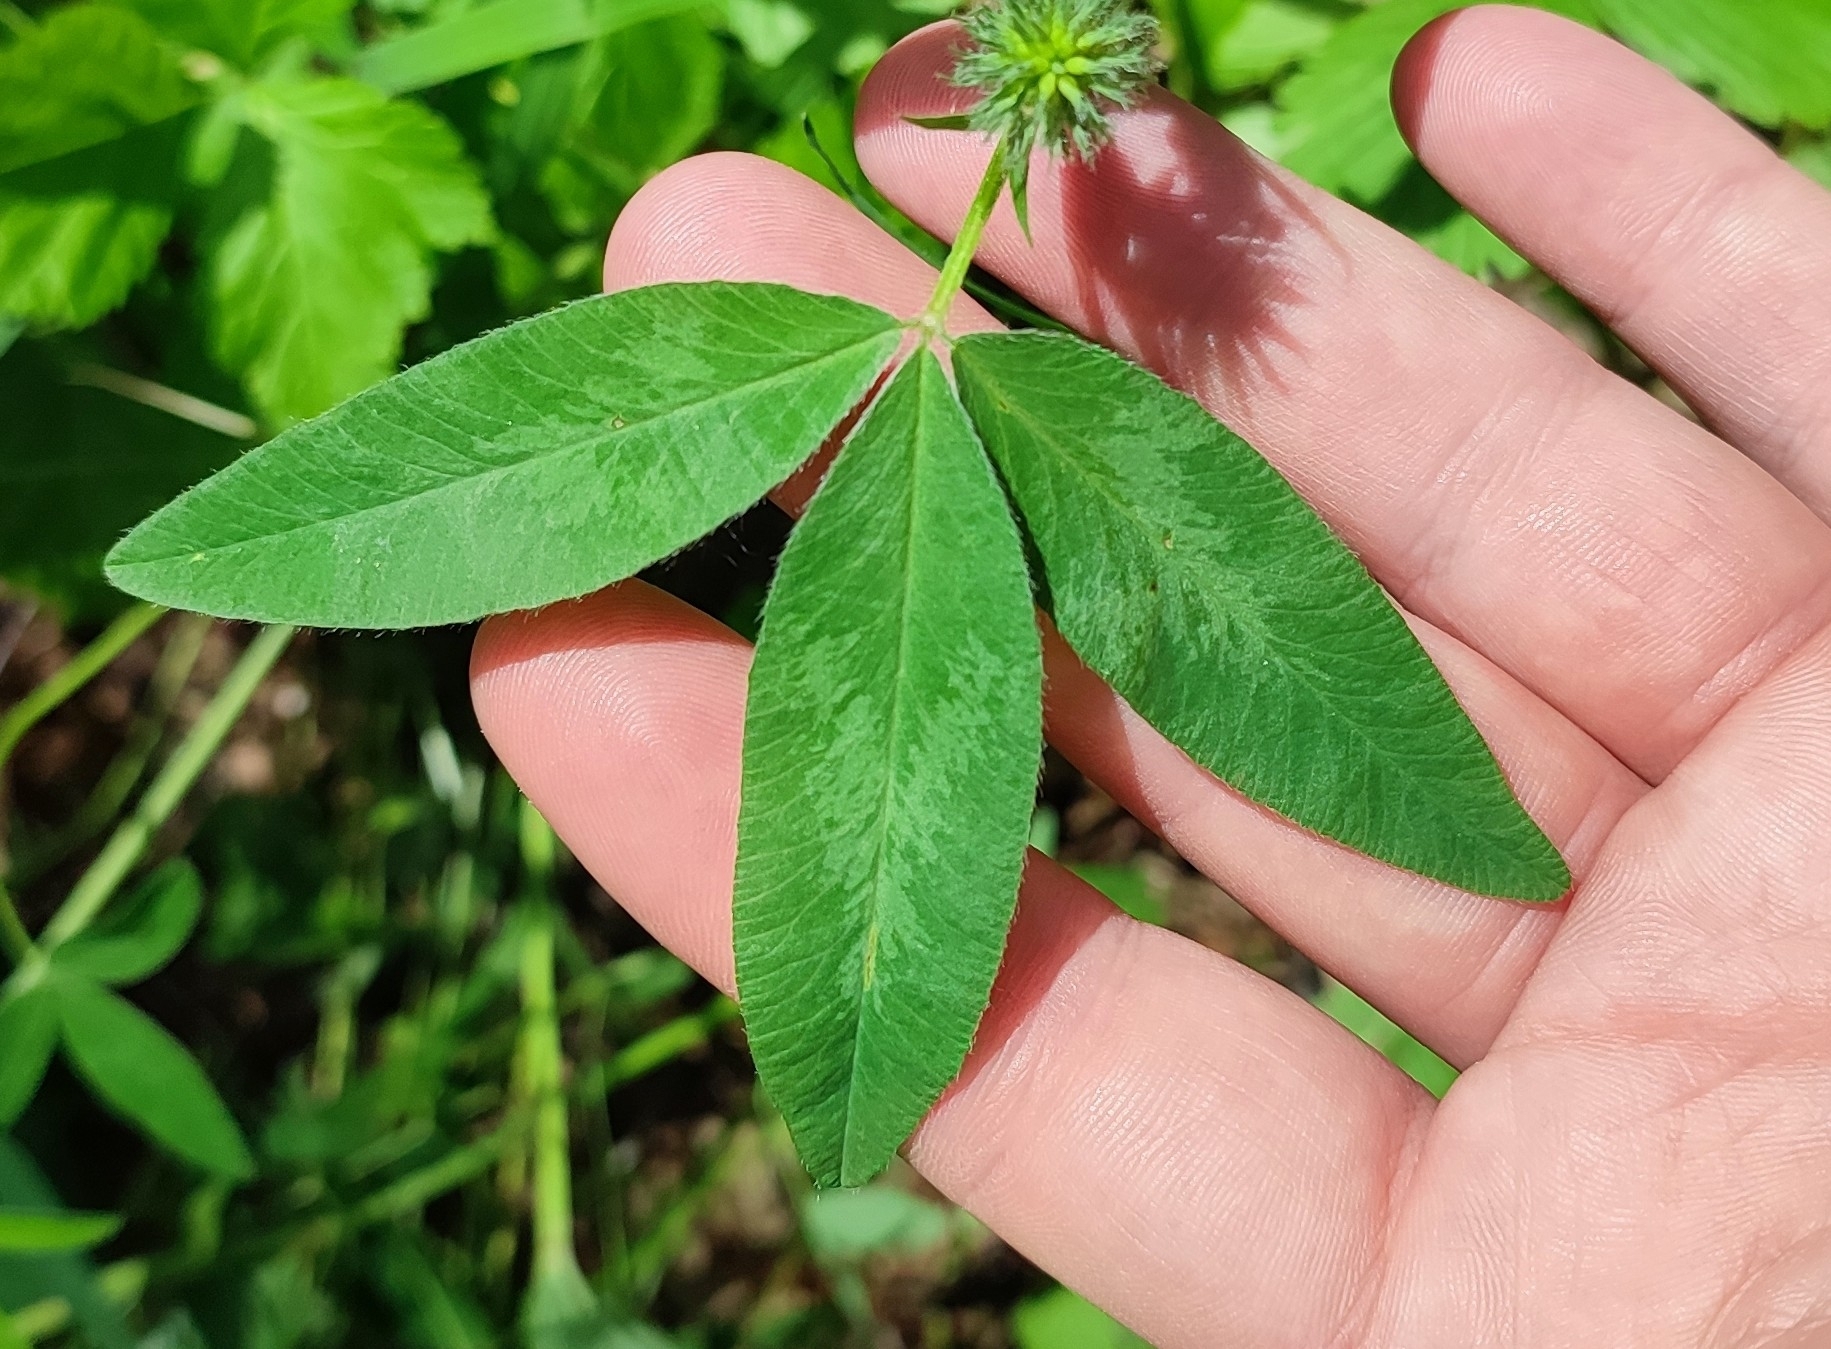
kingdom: Plantae
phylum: Tracheophyta
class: Magnoliopsida
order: Fabales
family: Fabaceae
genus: Trifolium
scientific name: Trifolium medium
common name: Zigzag clover
